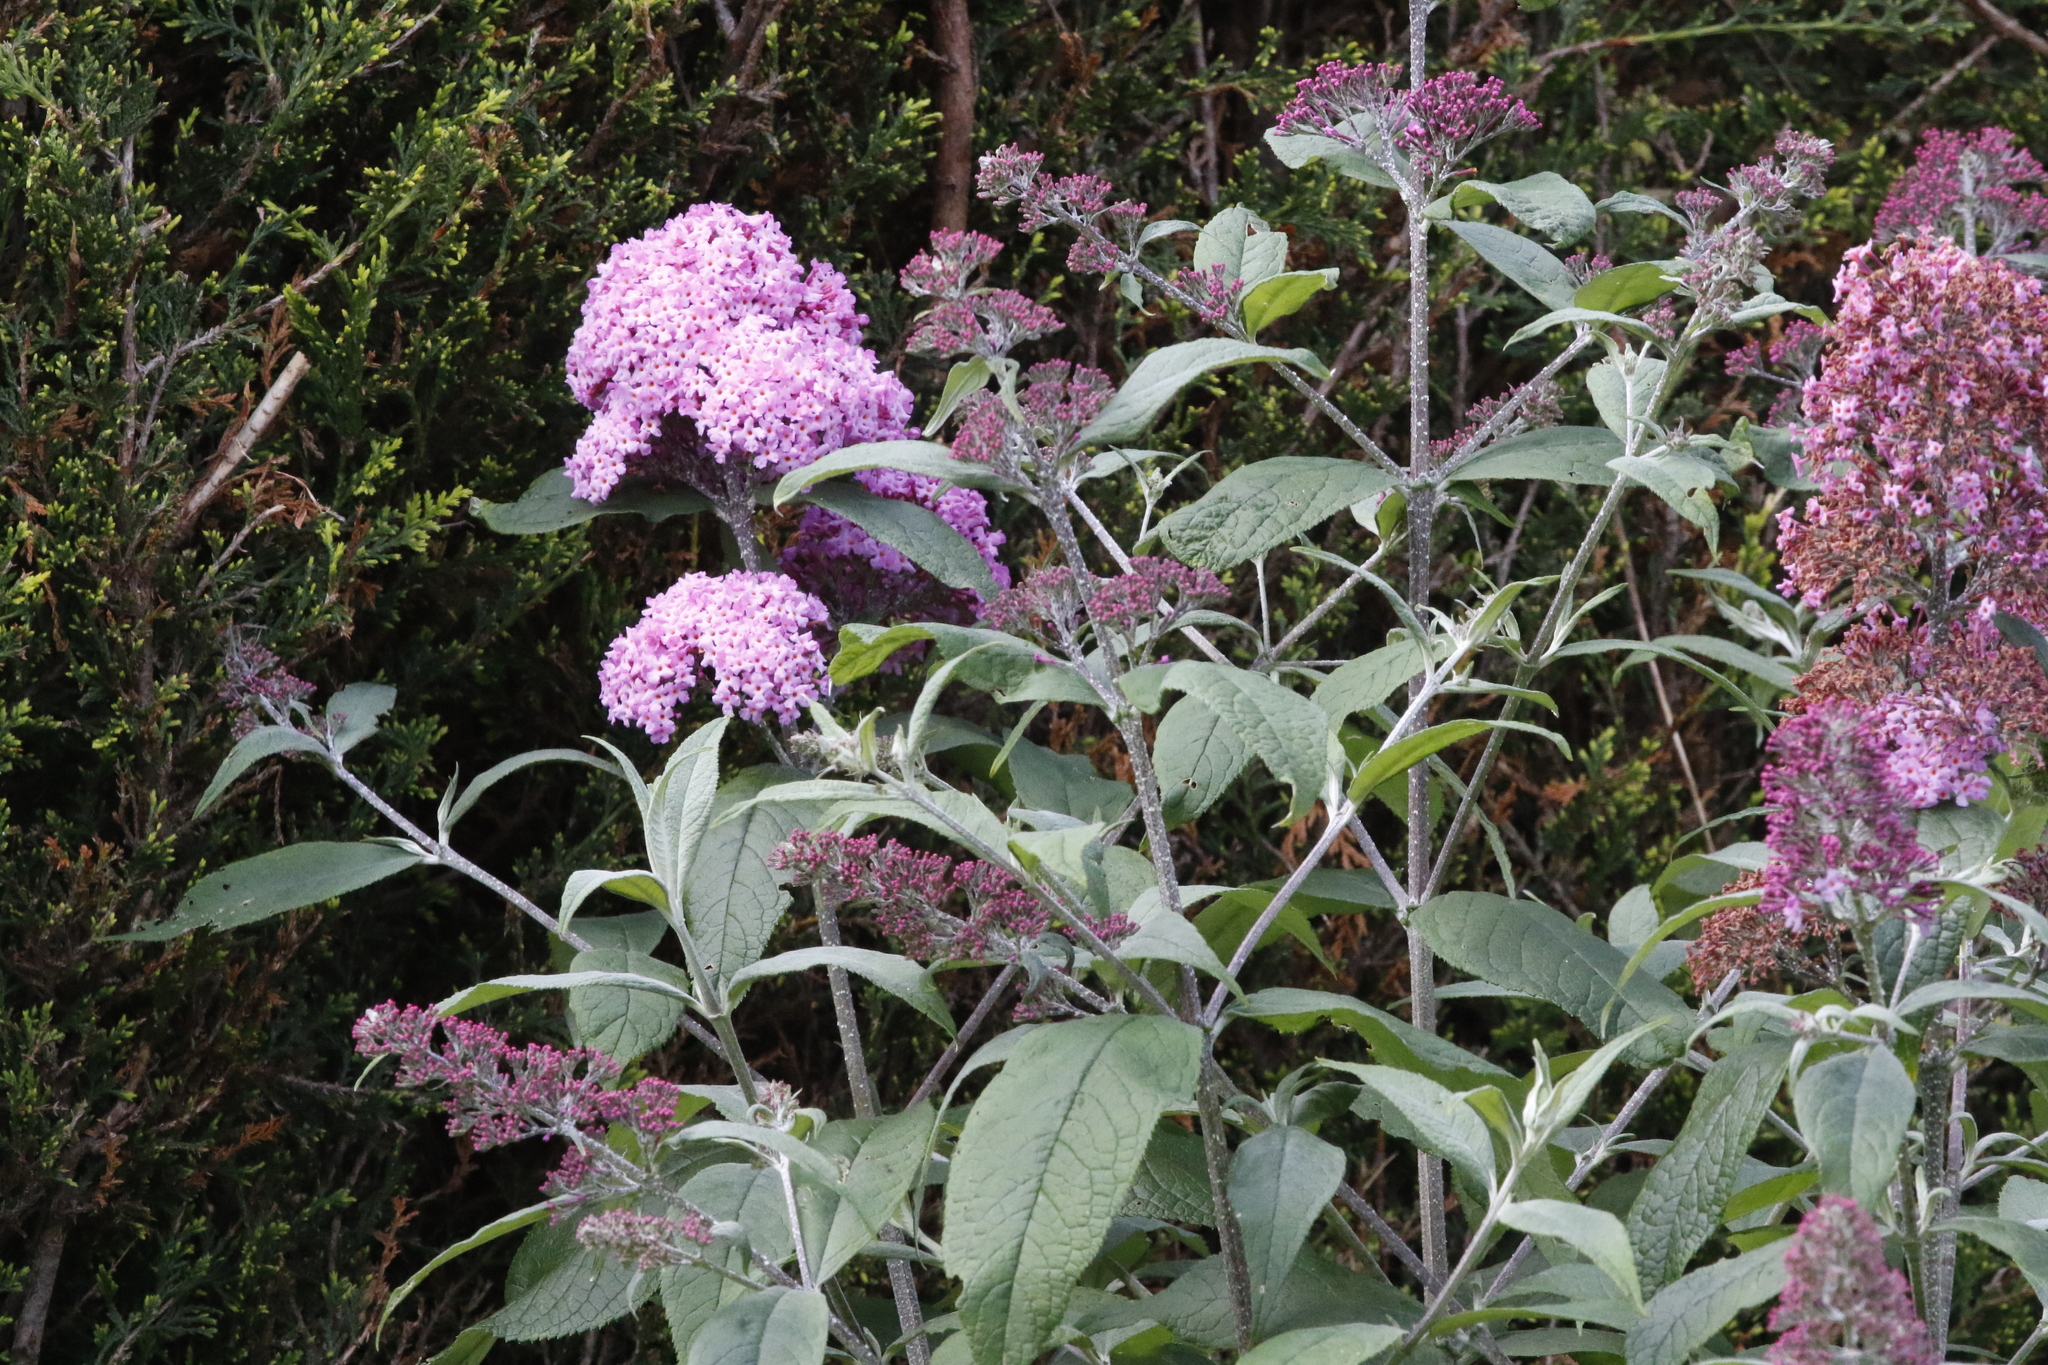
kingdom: Plantae
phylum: Tracheophyta
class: Magnoliopsida
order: Lamiales
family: Scrophulariaceae
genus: Buddleja
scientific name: Buddleja davidii
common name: Butterfly-bush
